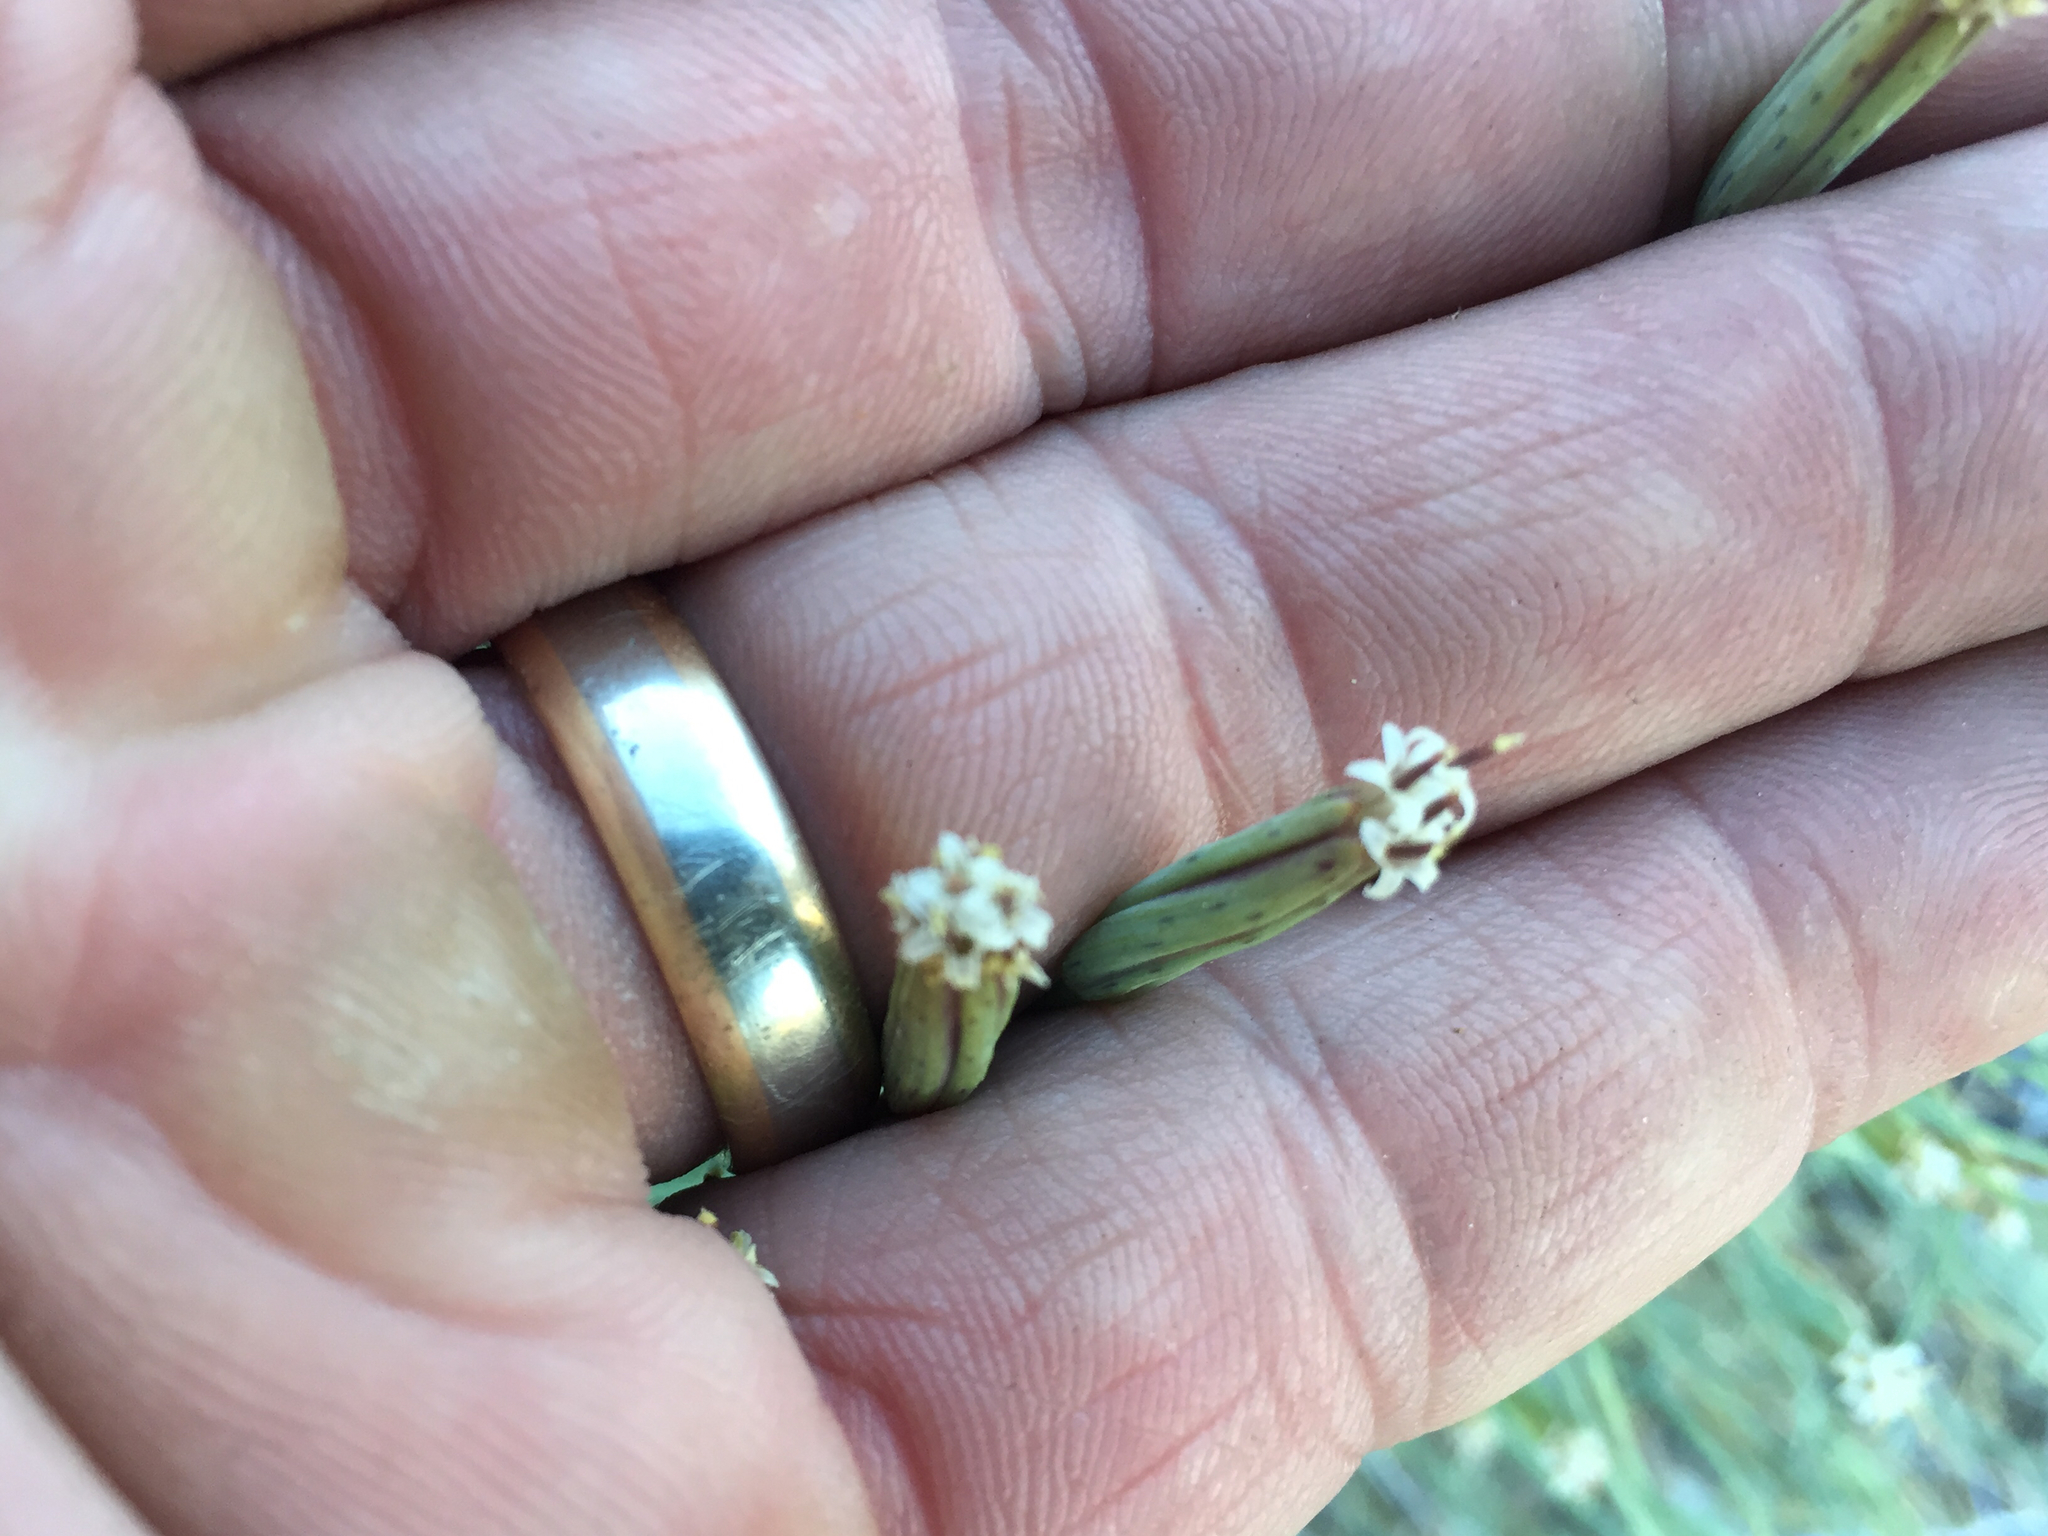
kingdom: Plantae
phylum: Tracheophyta
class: Magnoliopsida
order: Asterales
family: Asteraceae
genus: Porophyllum
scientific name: Porophyllum gracile
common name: Odora
